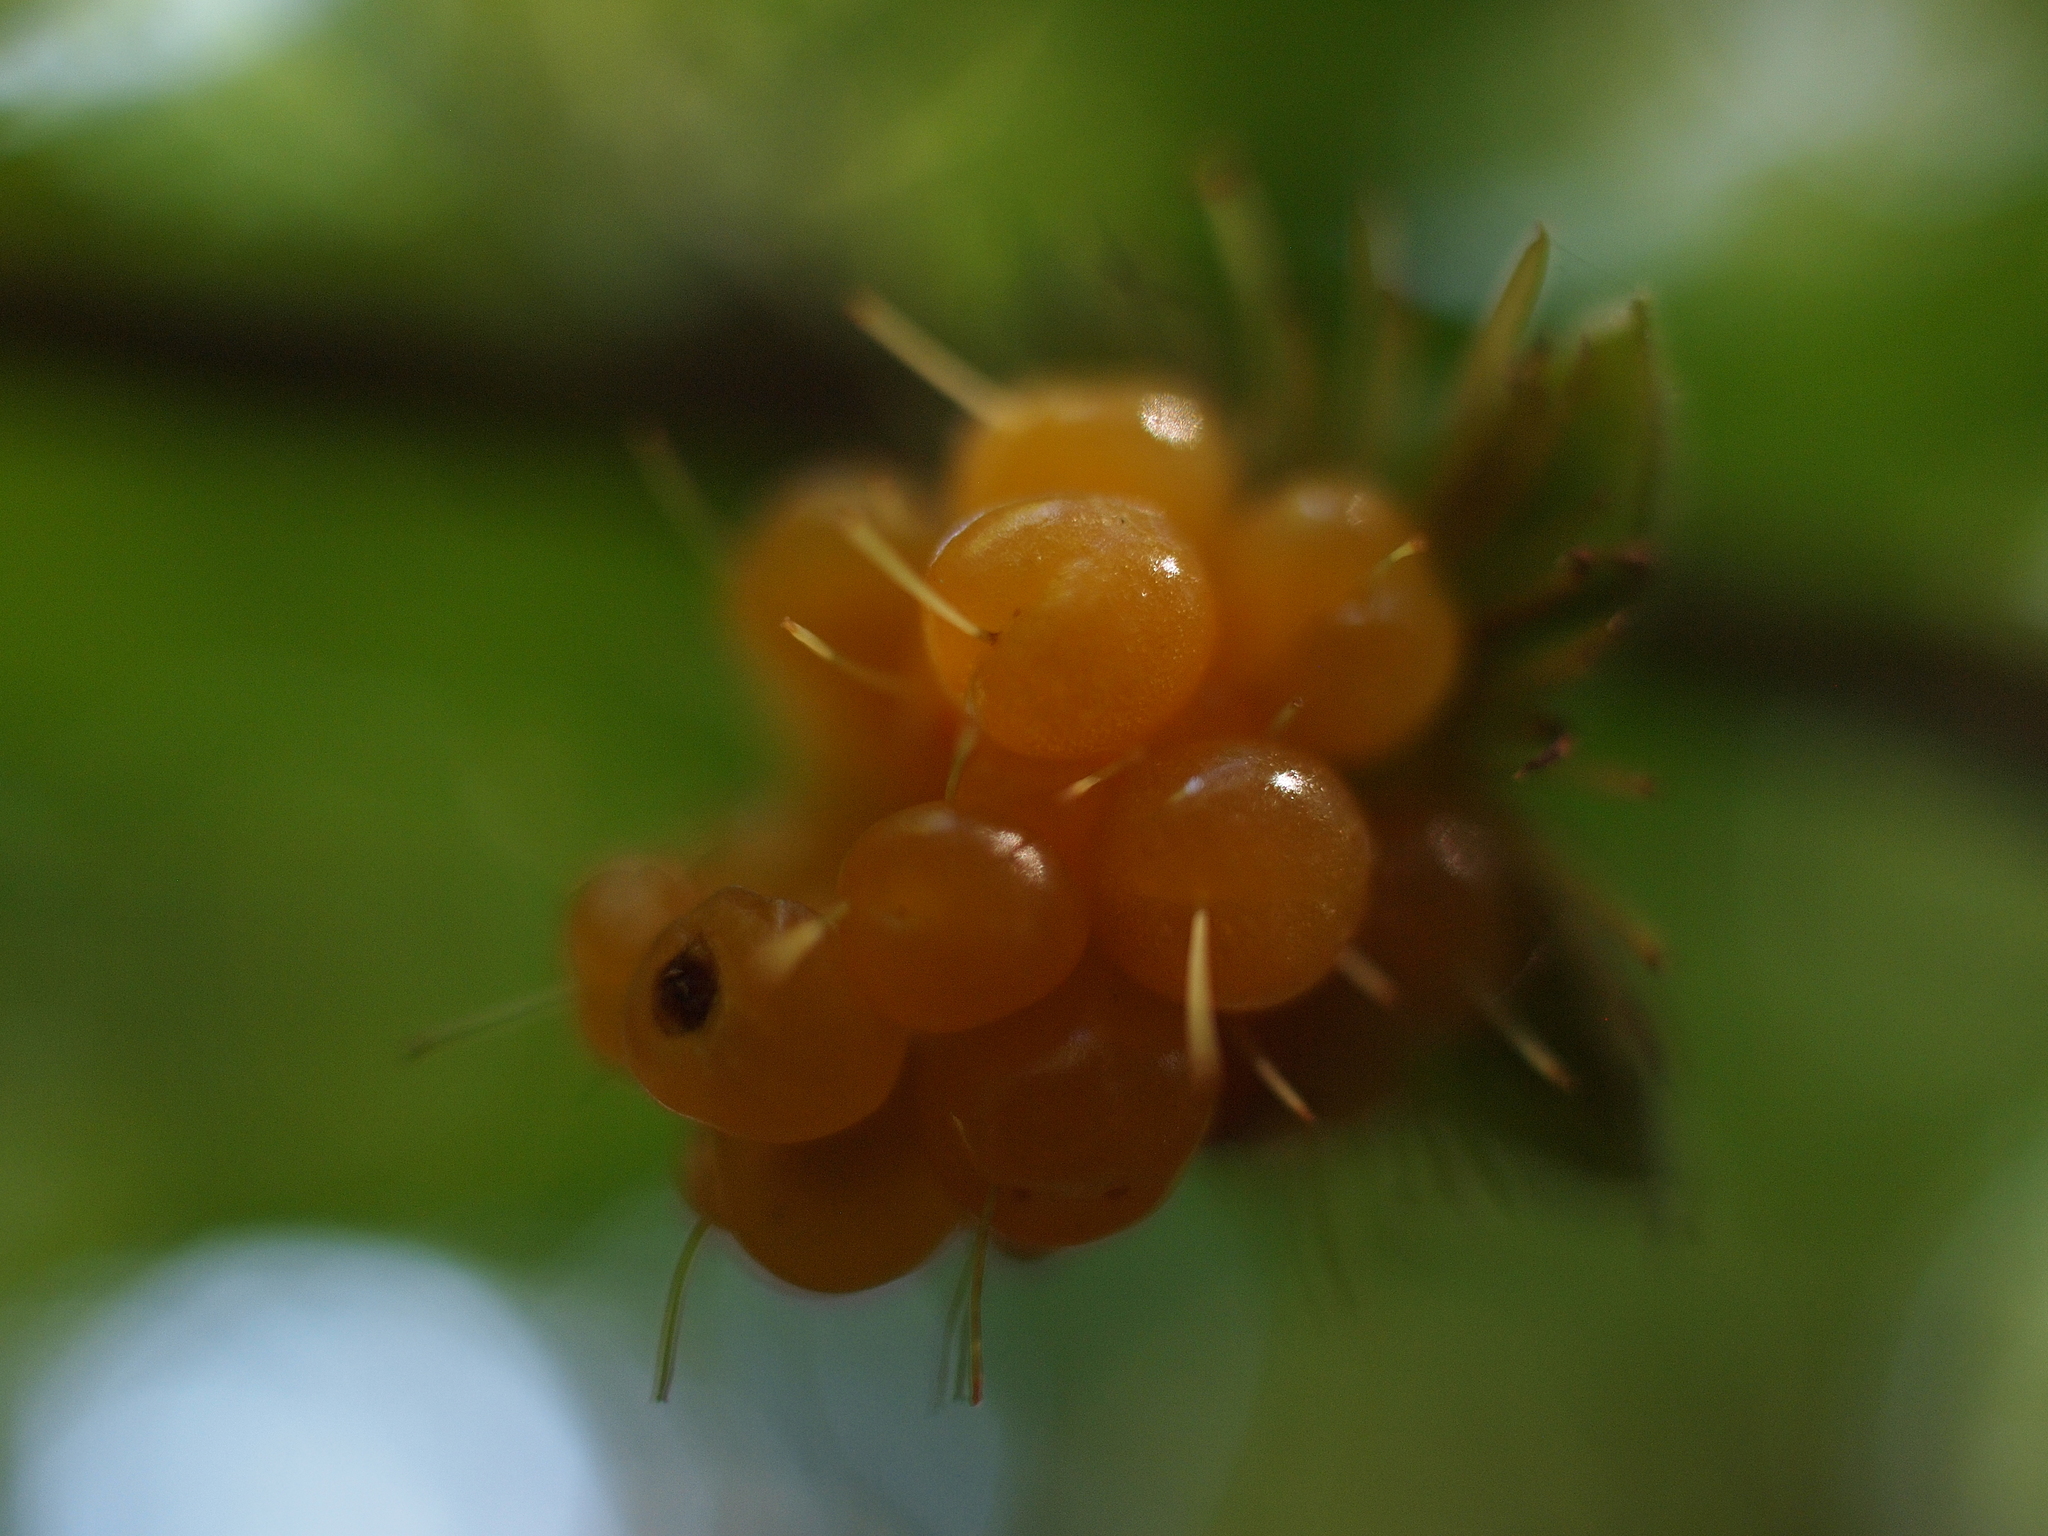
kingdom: Plantae
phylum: Tracheophyta
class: Magnoliopsida
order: Rosales
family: Rosaceae
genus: Rubus
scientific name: Rubus spectabilis
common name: Salmonberry
